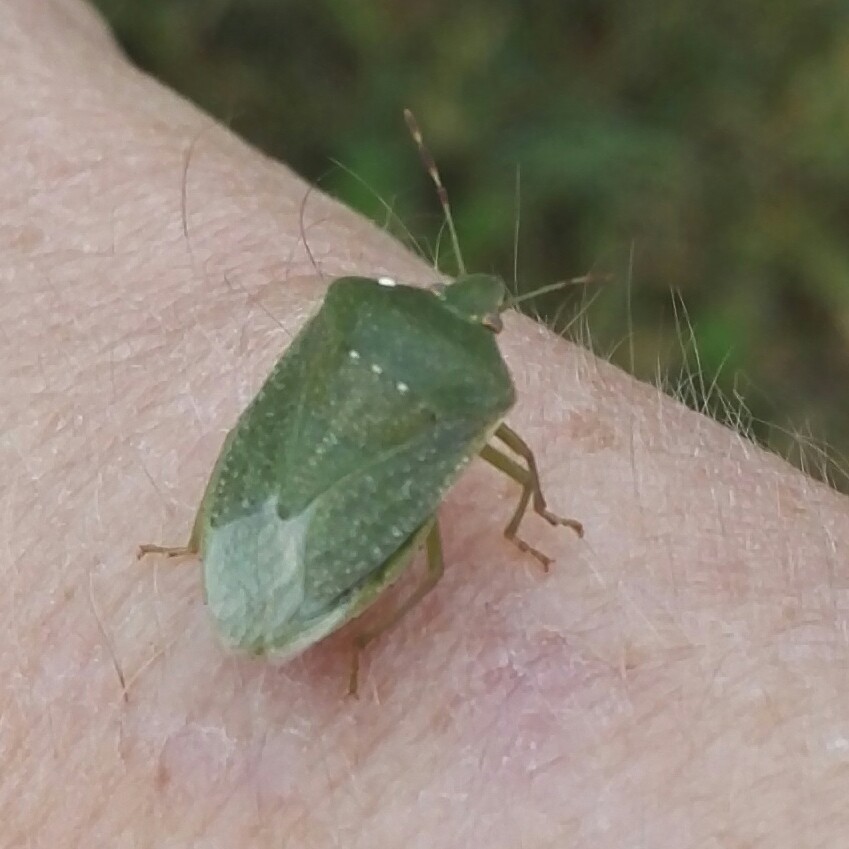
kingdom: Animalia
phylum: Arthropoda
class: Insecta
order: Hemiptera
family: Pentatomidae
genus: Nezara
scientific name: Nezara viridula
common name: Southern green stink bug
